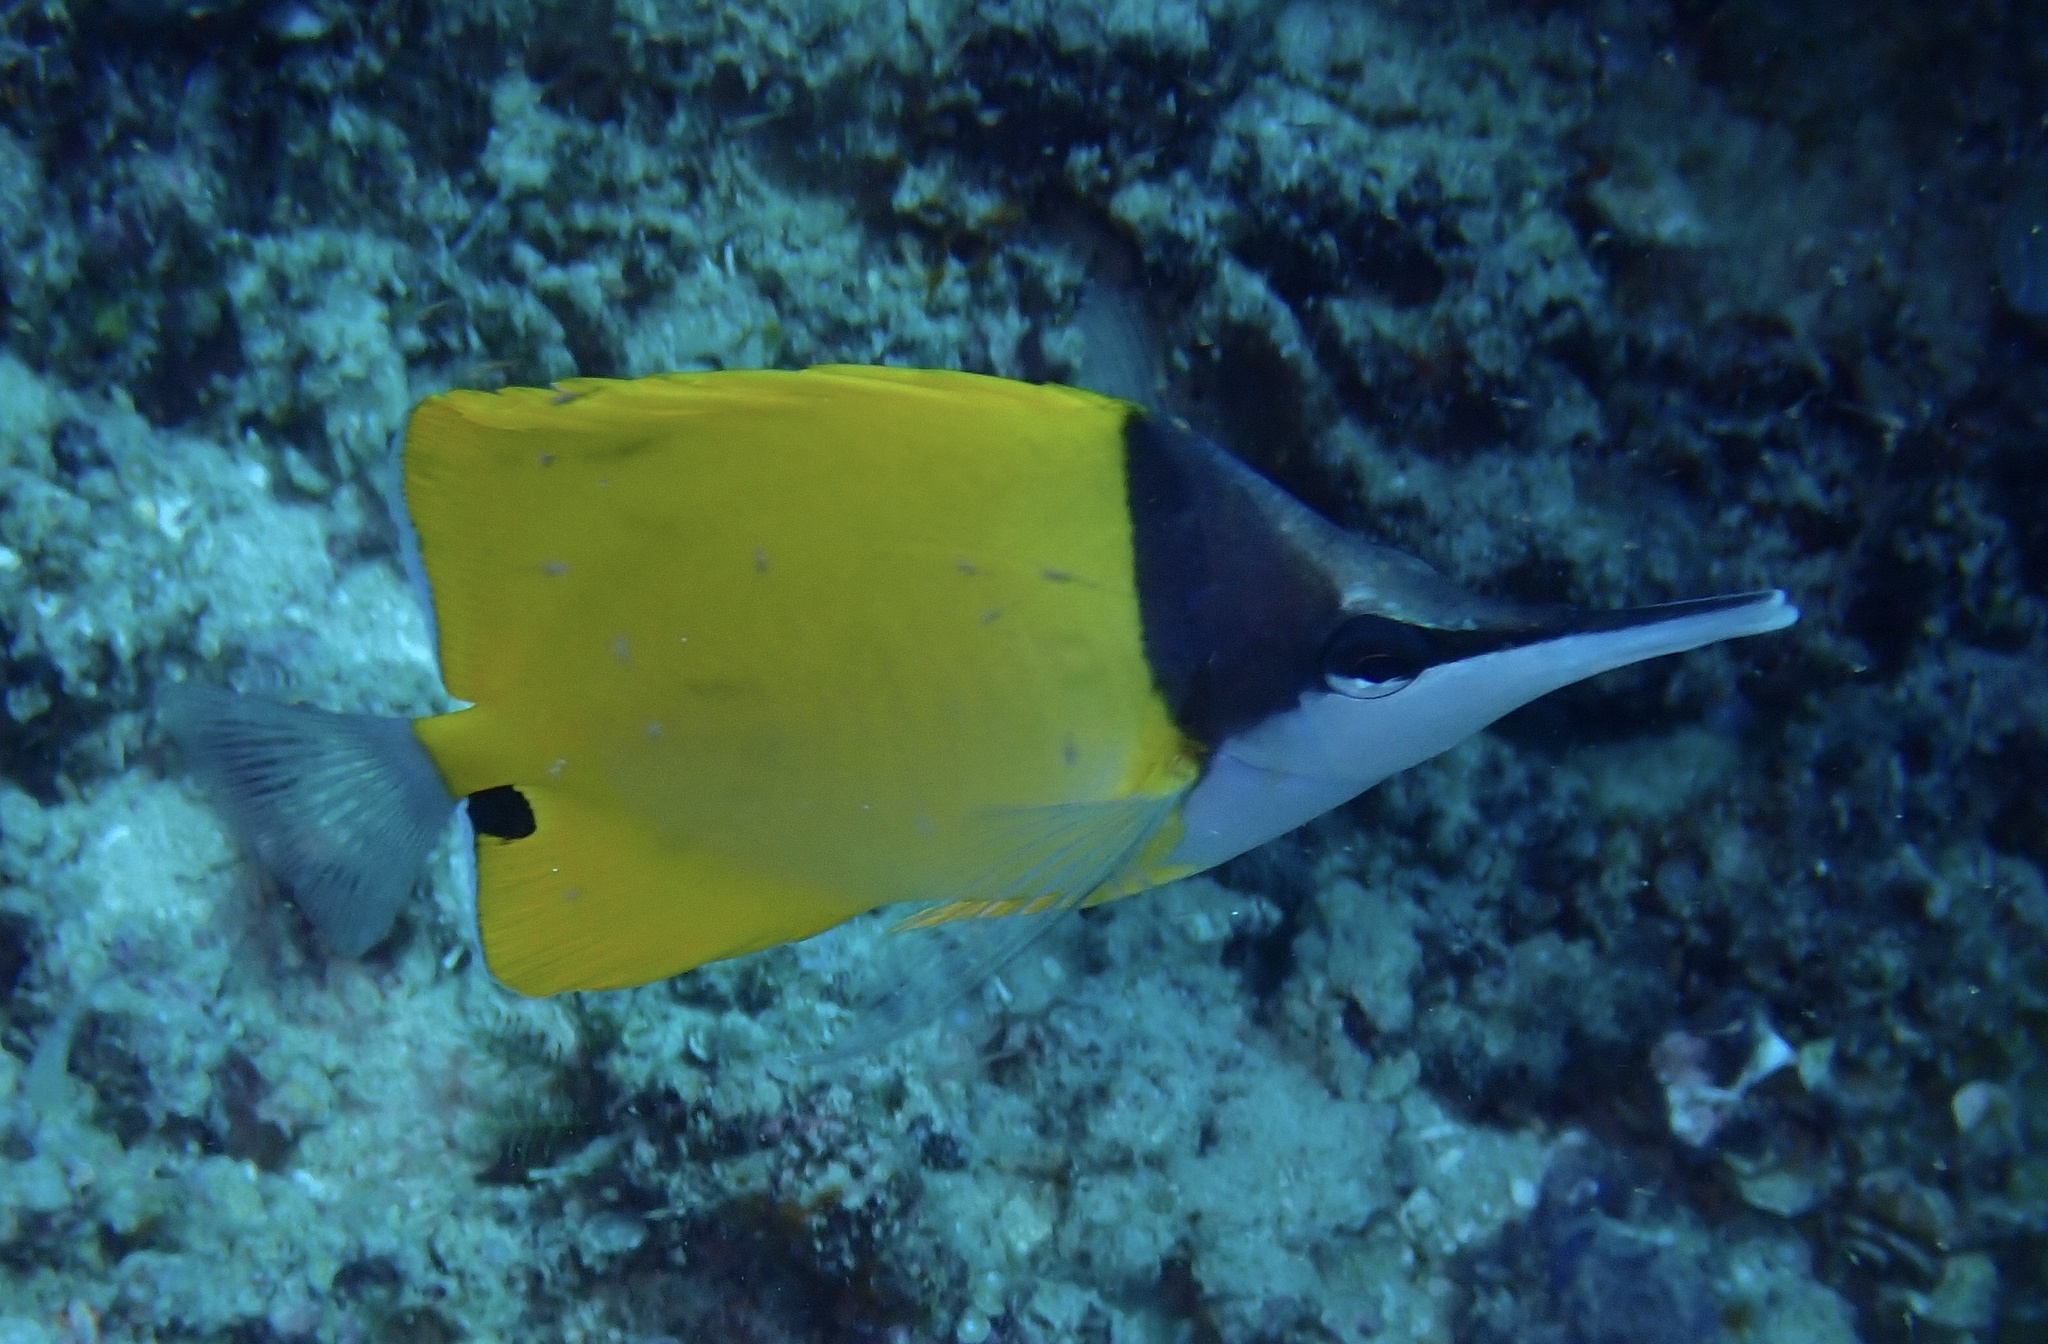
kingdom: Animalia
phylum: Chordata
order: Perciformes
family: Chaetodontidae
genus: Forcipiger
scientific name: Forcipiger flavissimus
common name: Forcepsfish
